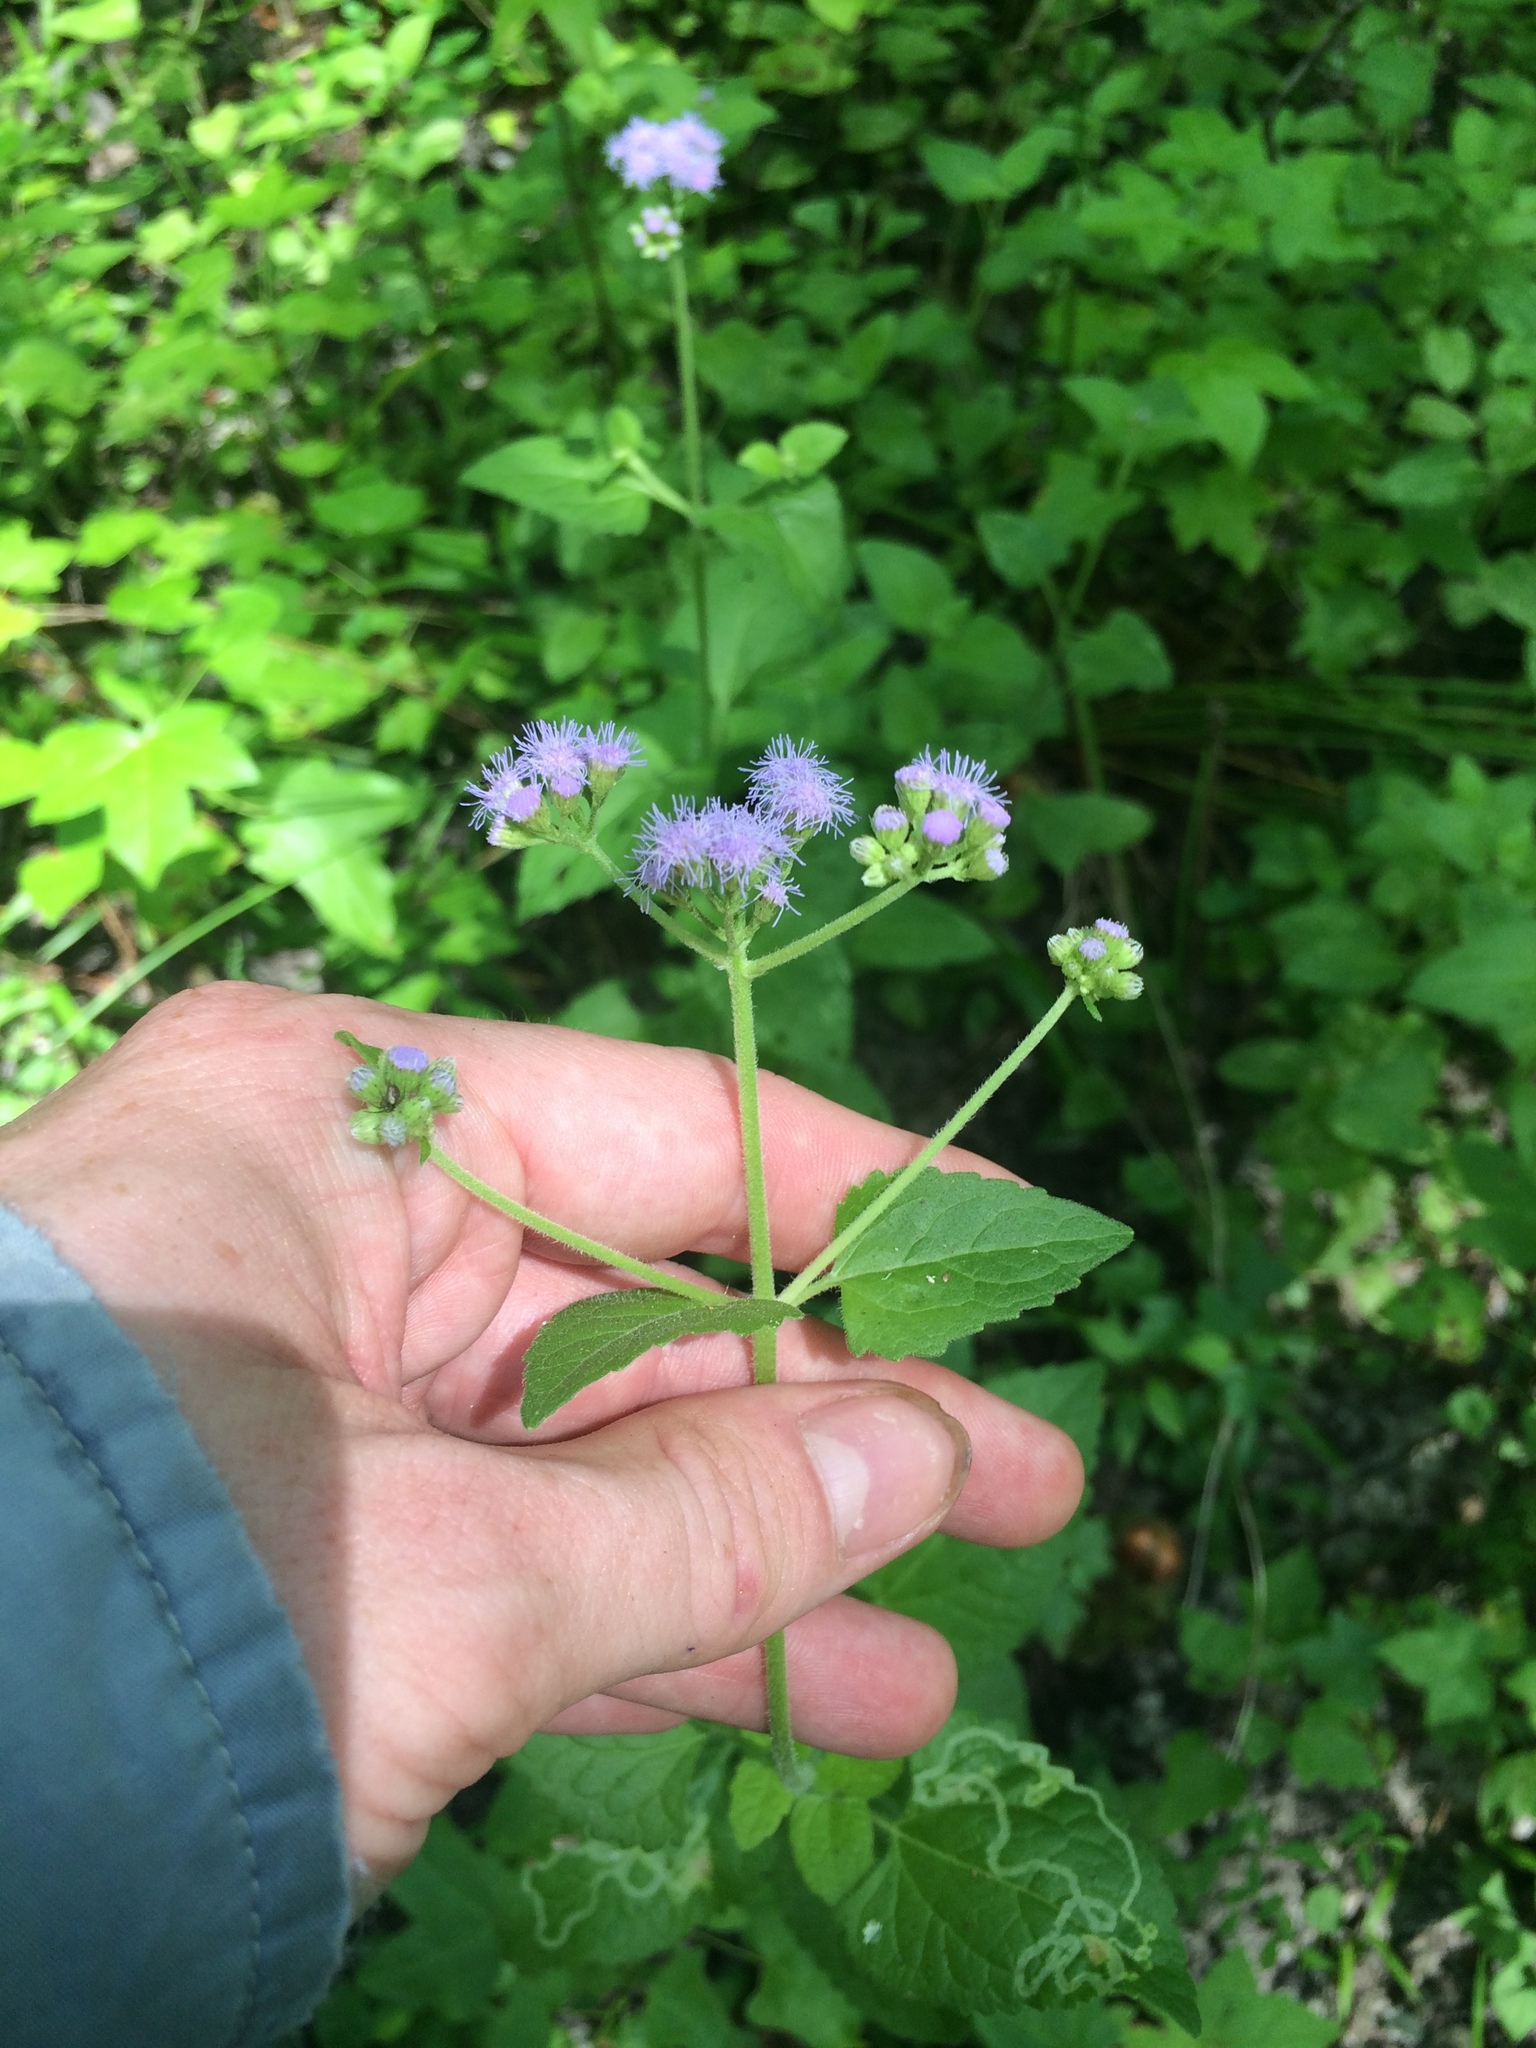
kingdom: Plantae
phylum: Tracheophyta
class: Magnoliopsida
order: Asterales
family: Asteraceae
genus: Conoclinium
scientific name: Conoclinium coelestinum
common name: Blue mistflower
